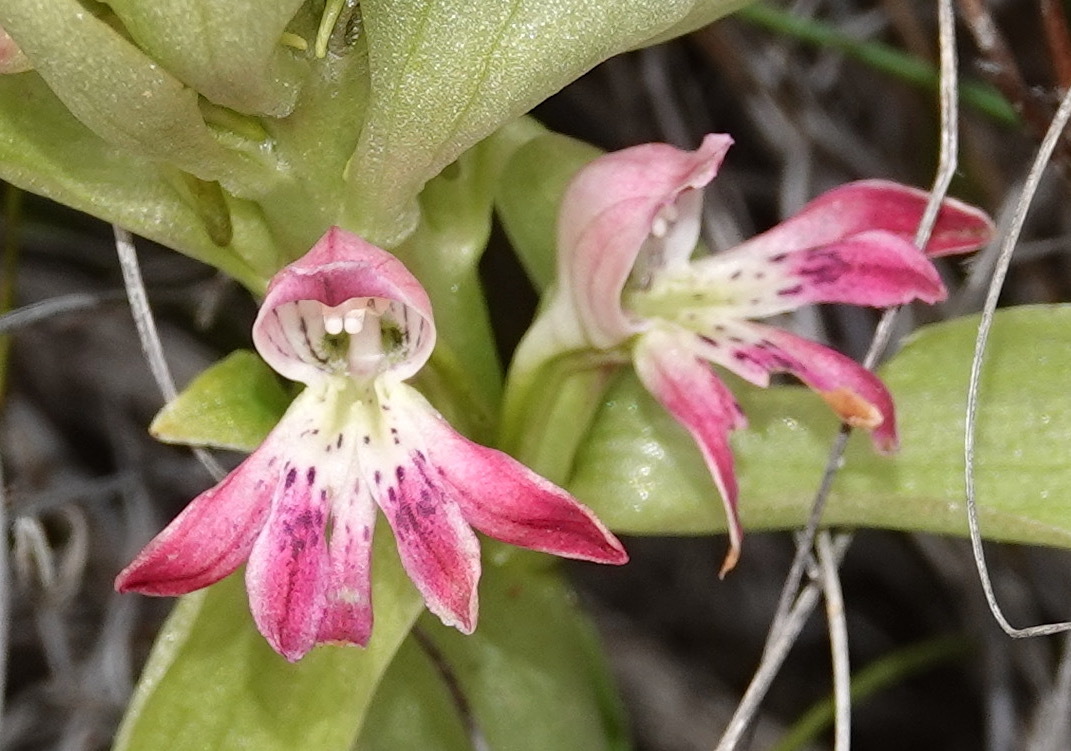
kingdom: Plantae
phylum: Tracheophyta
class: Liliopsida
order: Asparagales
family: Orchidaceae
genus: Satyrium
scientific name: Satyrium erectum
